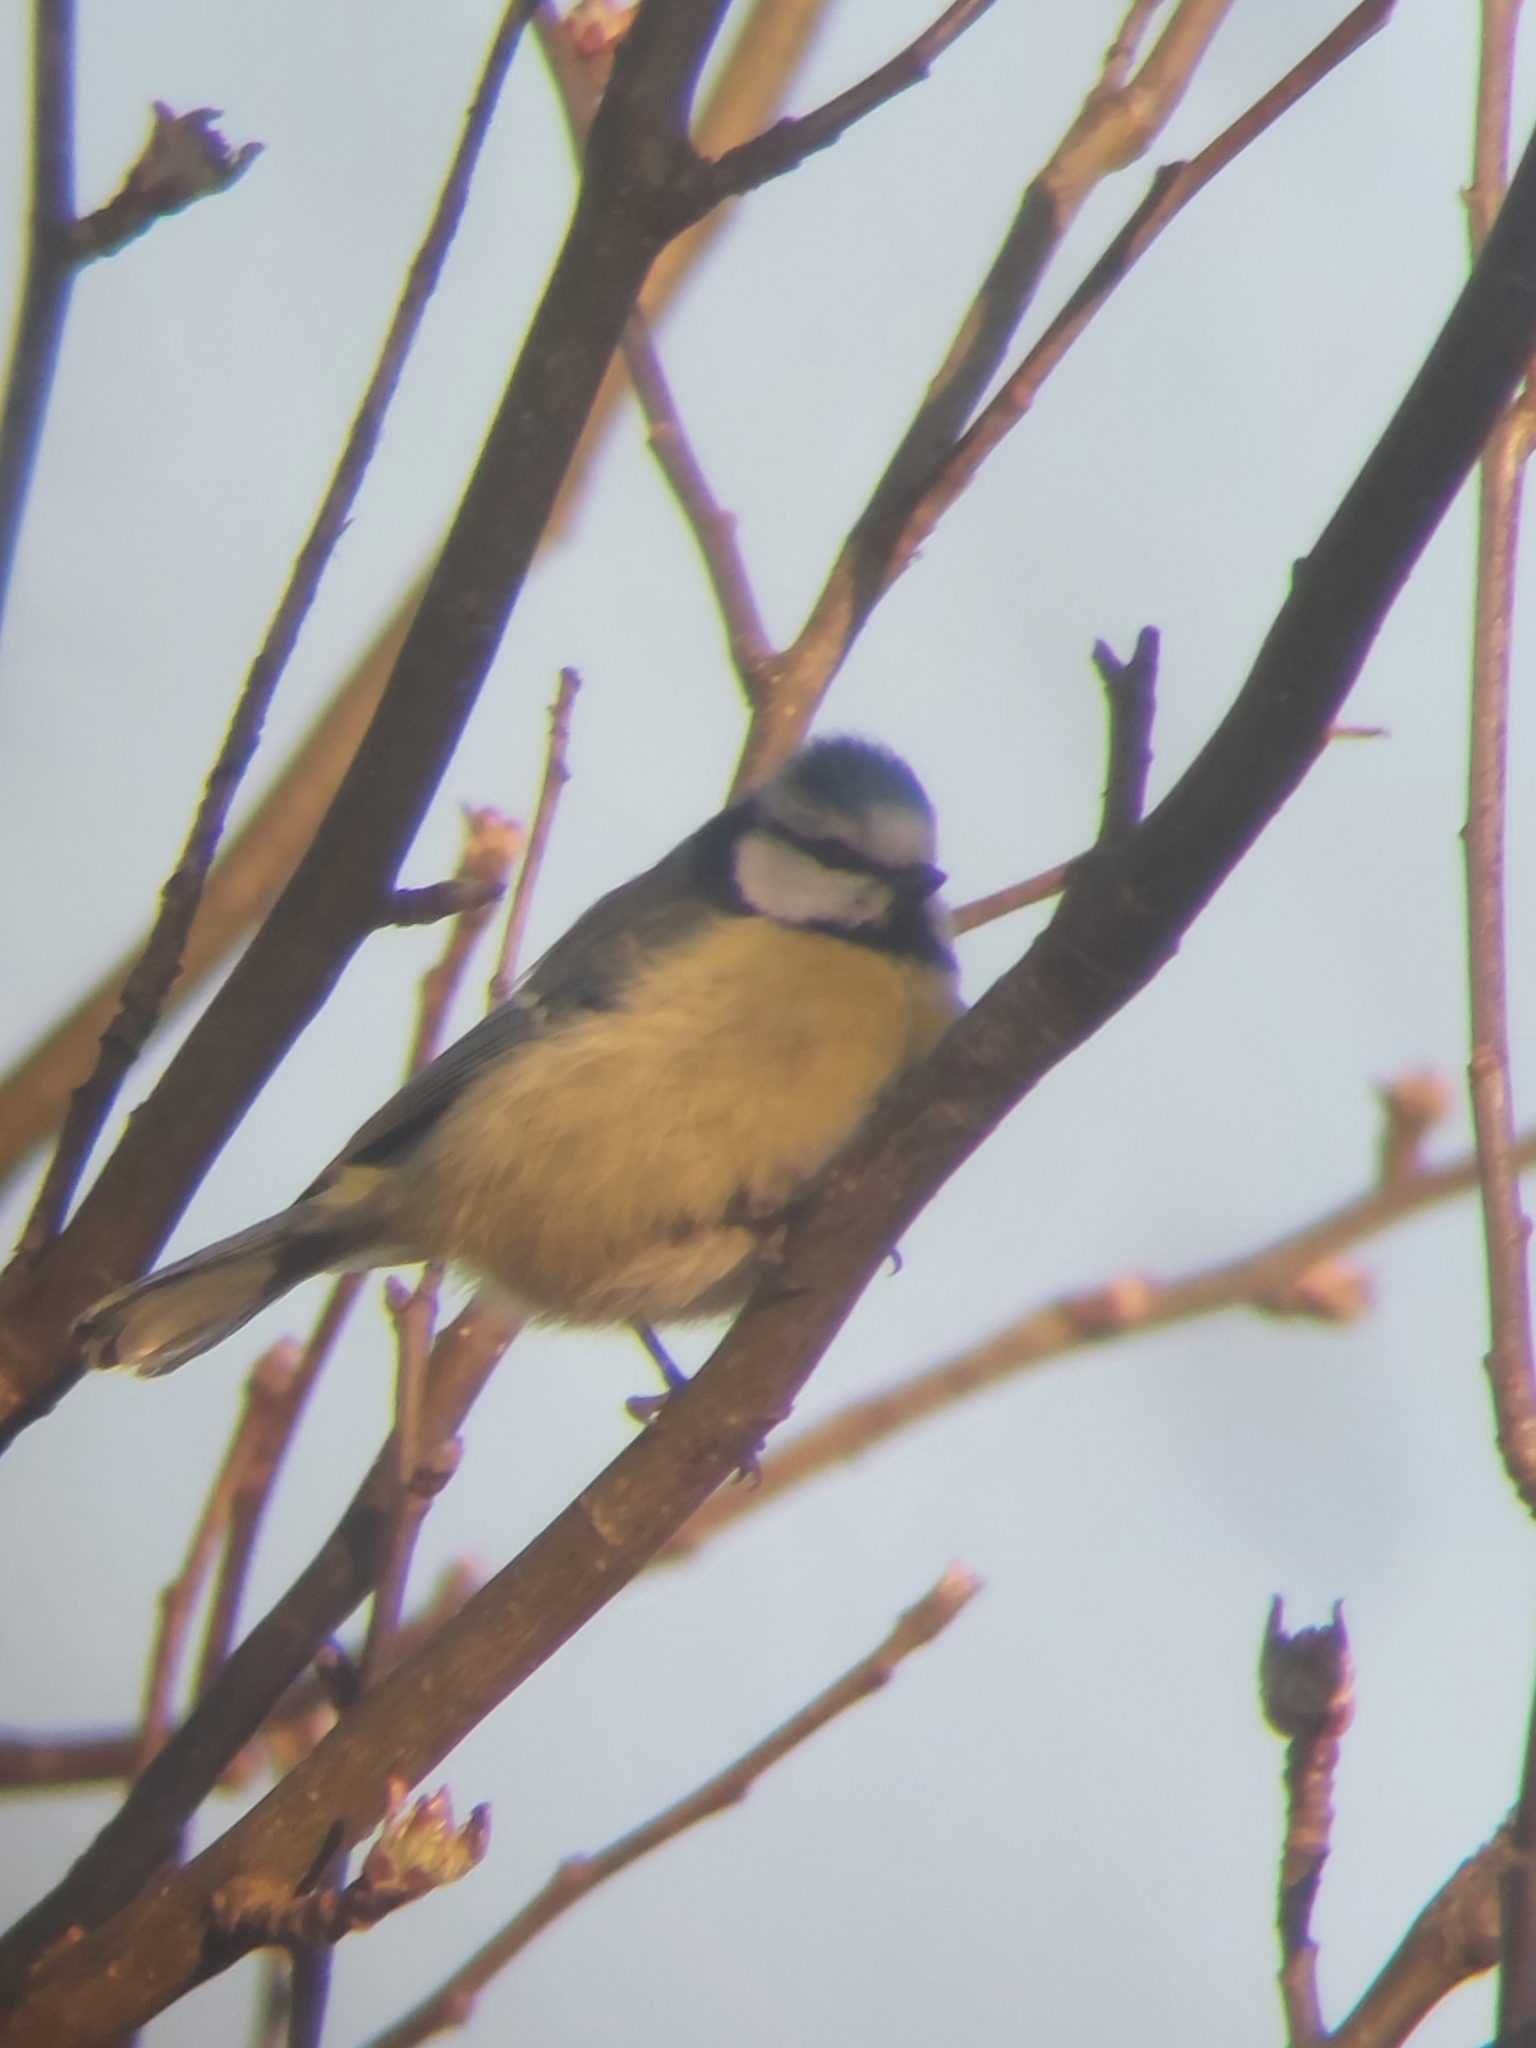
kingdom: Animalia
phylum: Chordata
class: Aves
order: Passeriformes
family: Paridae
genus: Cyanistes
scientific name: Cyanistes caeruleus
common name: Eurasian blue tit
